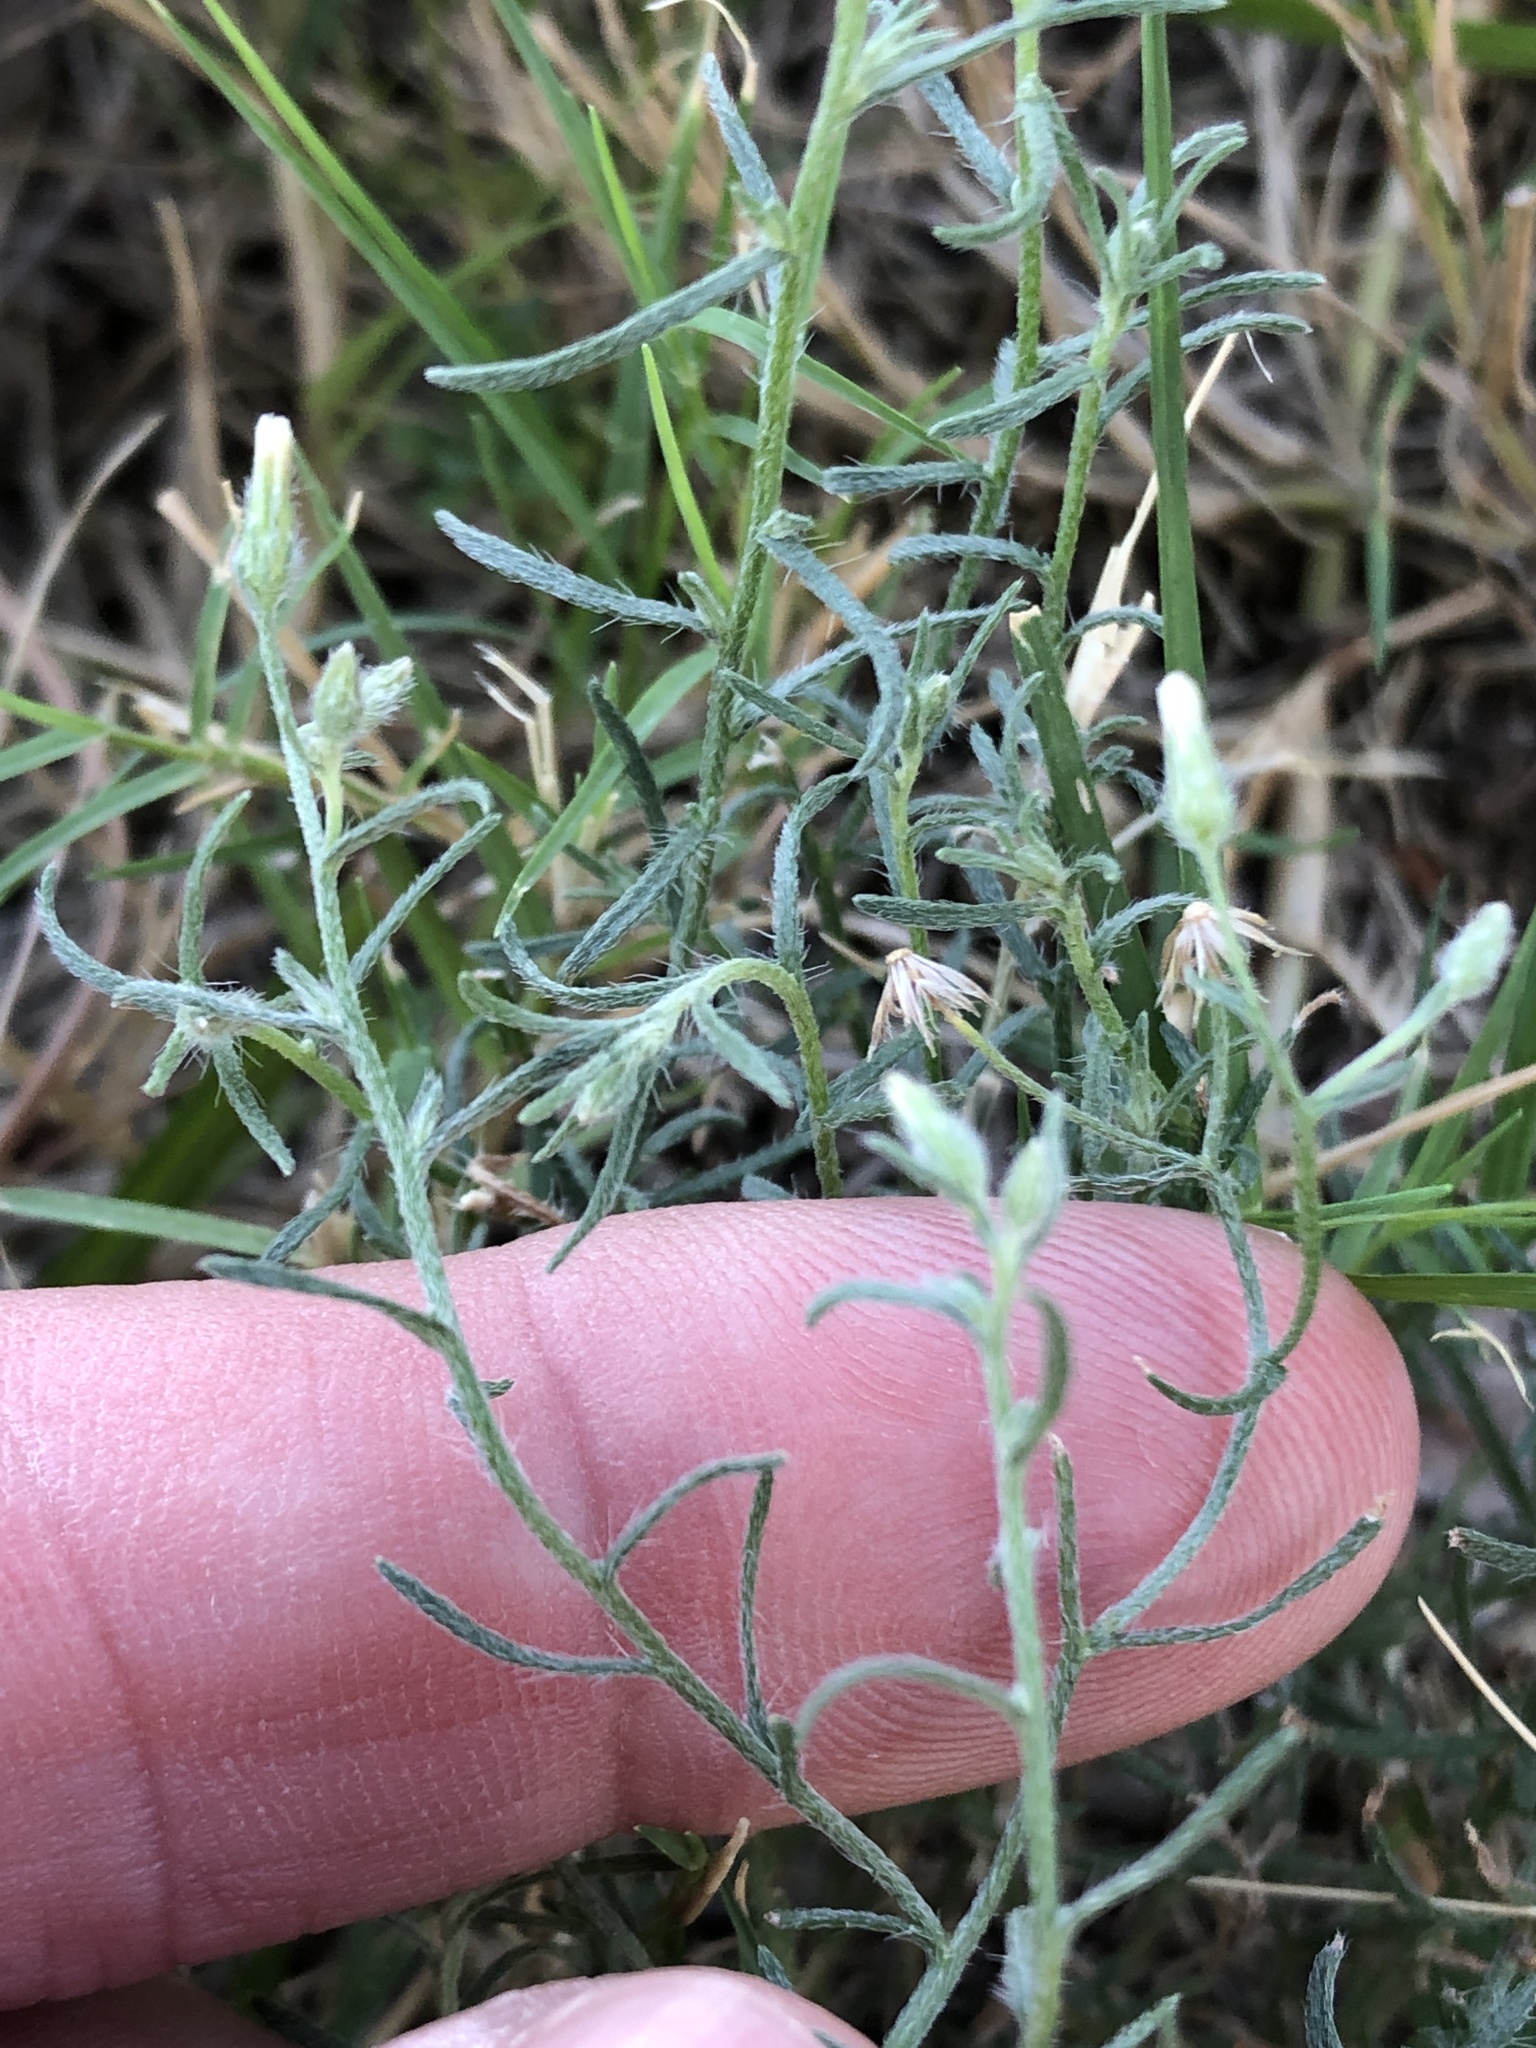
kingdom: Plantae
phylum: Tracheophyta
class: Magnoliopsida
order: Asterales
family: Asteraceae
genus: Erigeron
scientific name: Erigeron divaricatus
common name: Dwarf conyza
